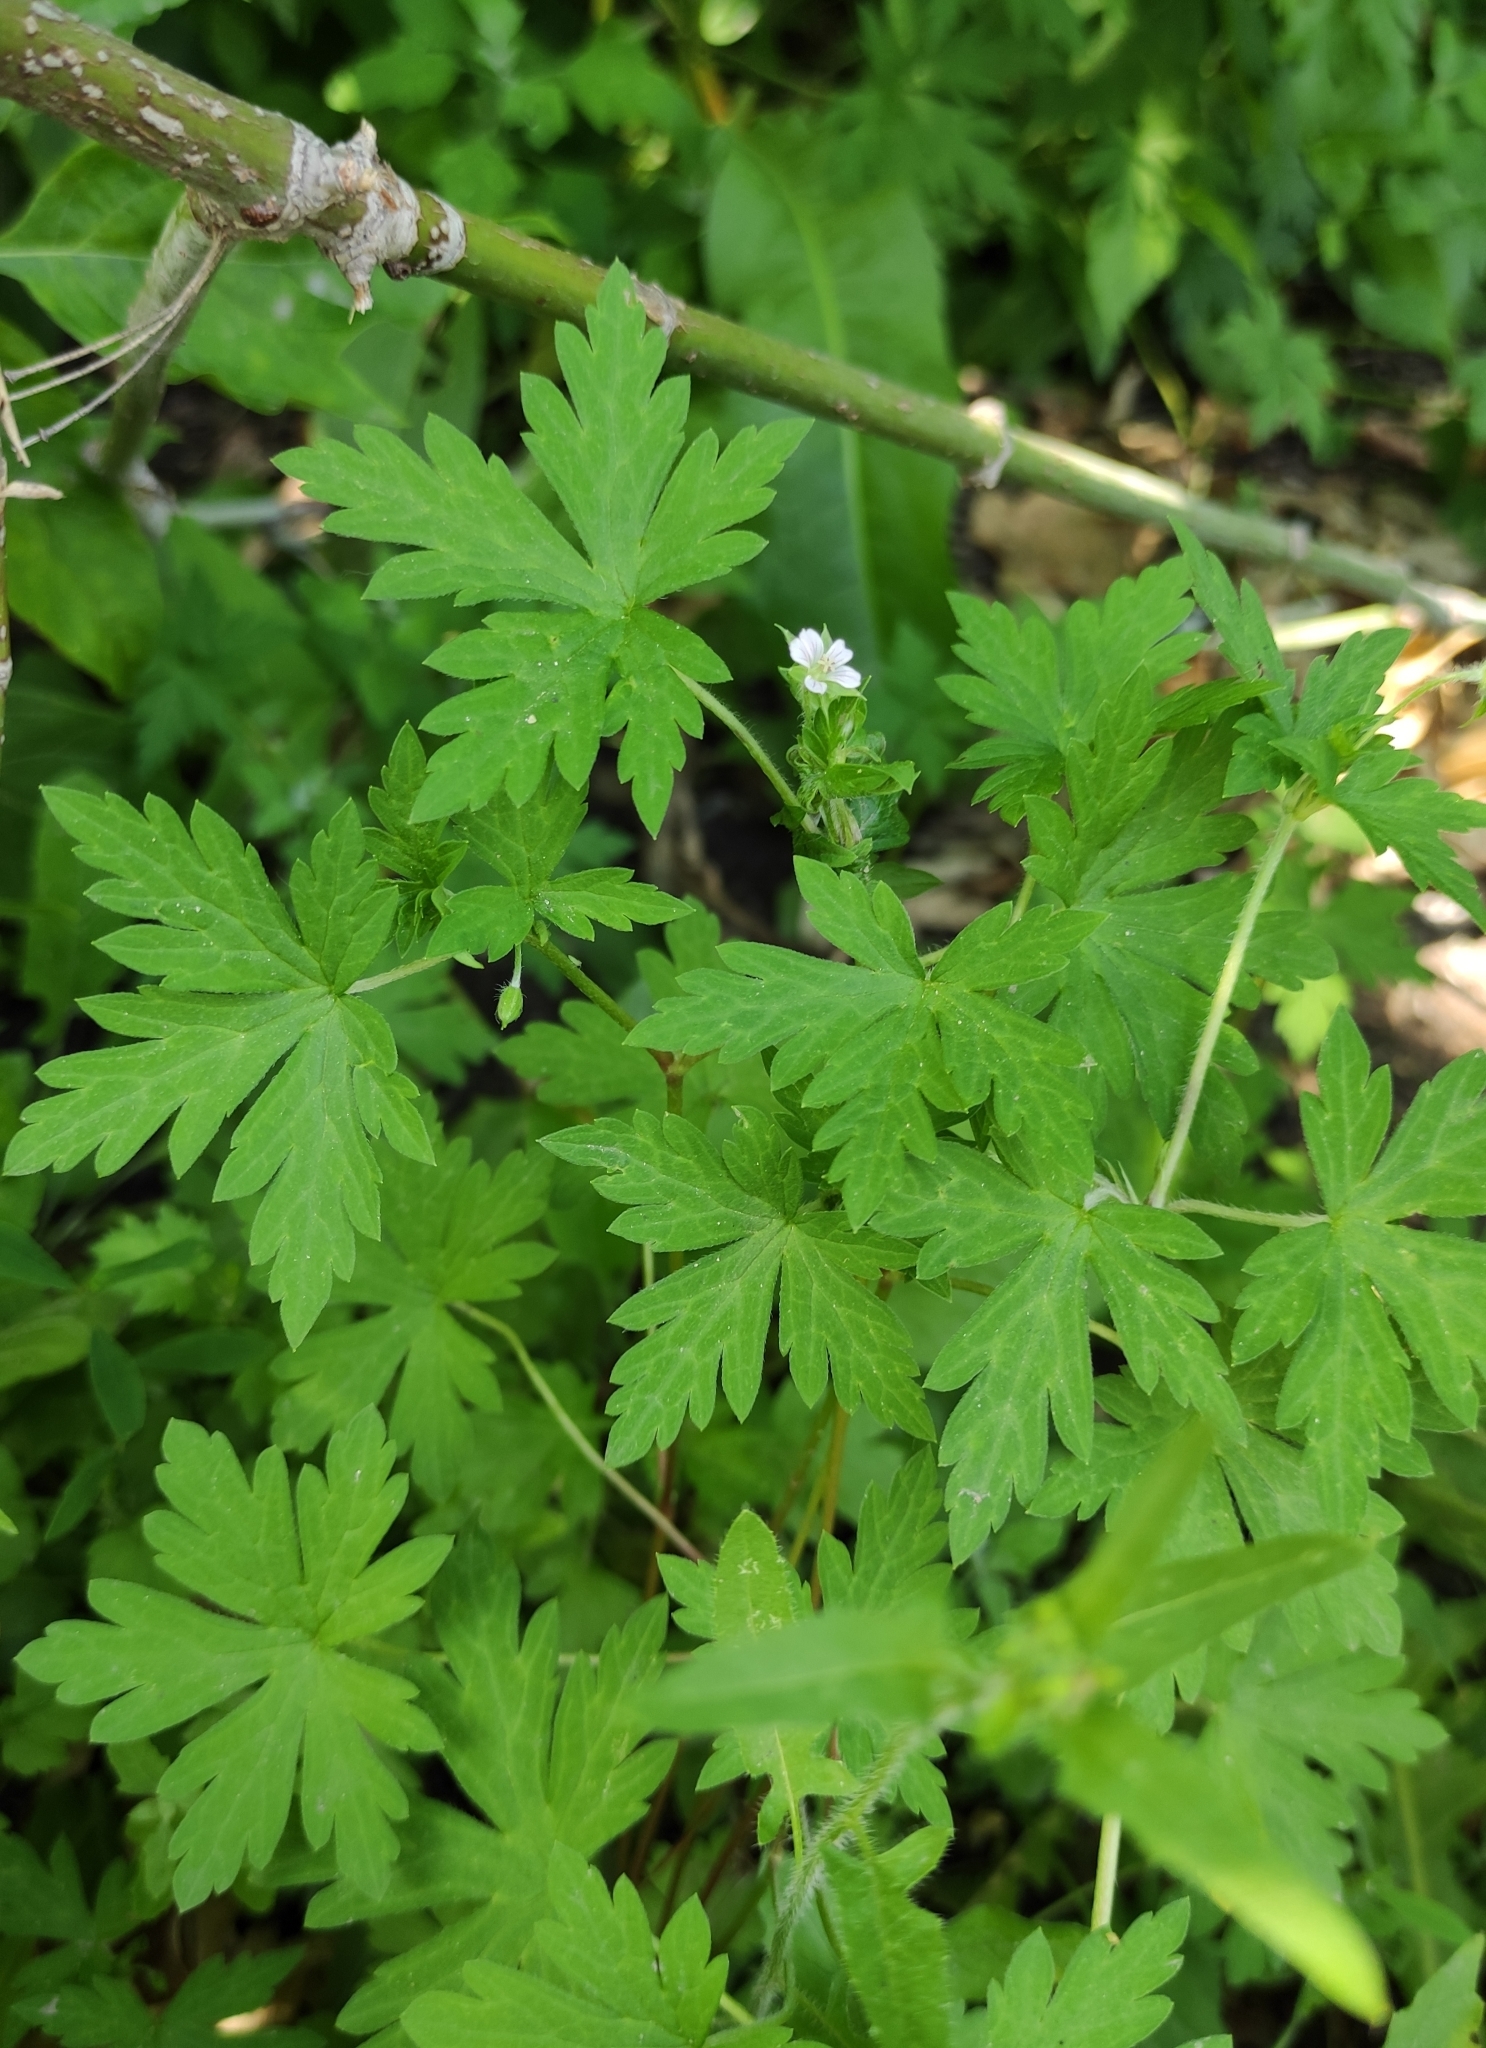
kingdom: Plantae
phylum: Tracheophyta
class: Magnoliopsida
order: Geraniales
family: Geraniaceae
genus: Geranium
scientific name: Geranium sibiricum
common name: Siberian crane's-bill
